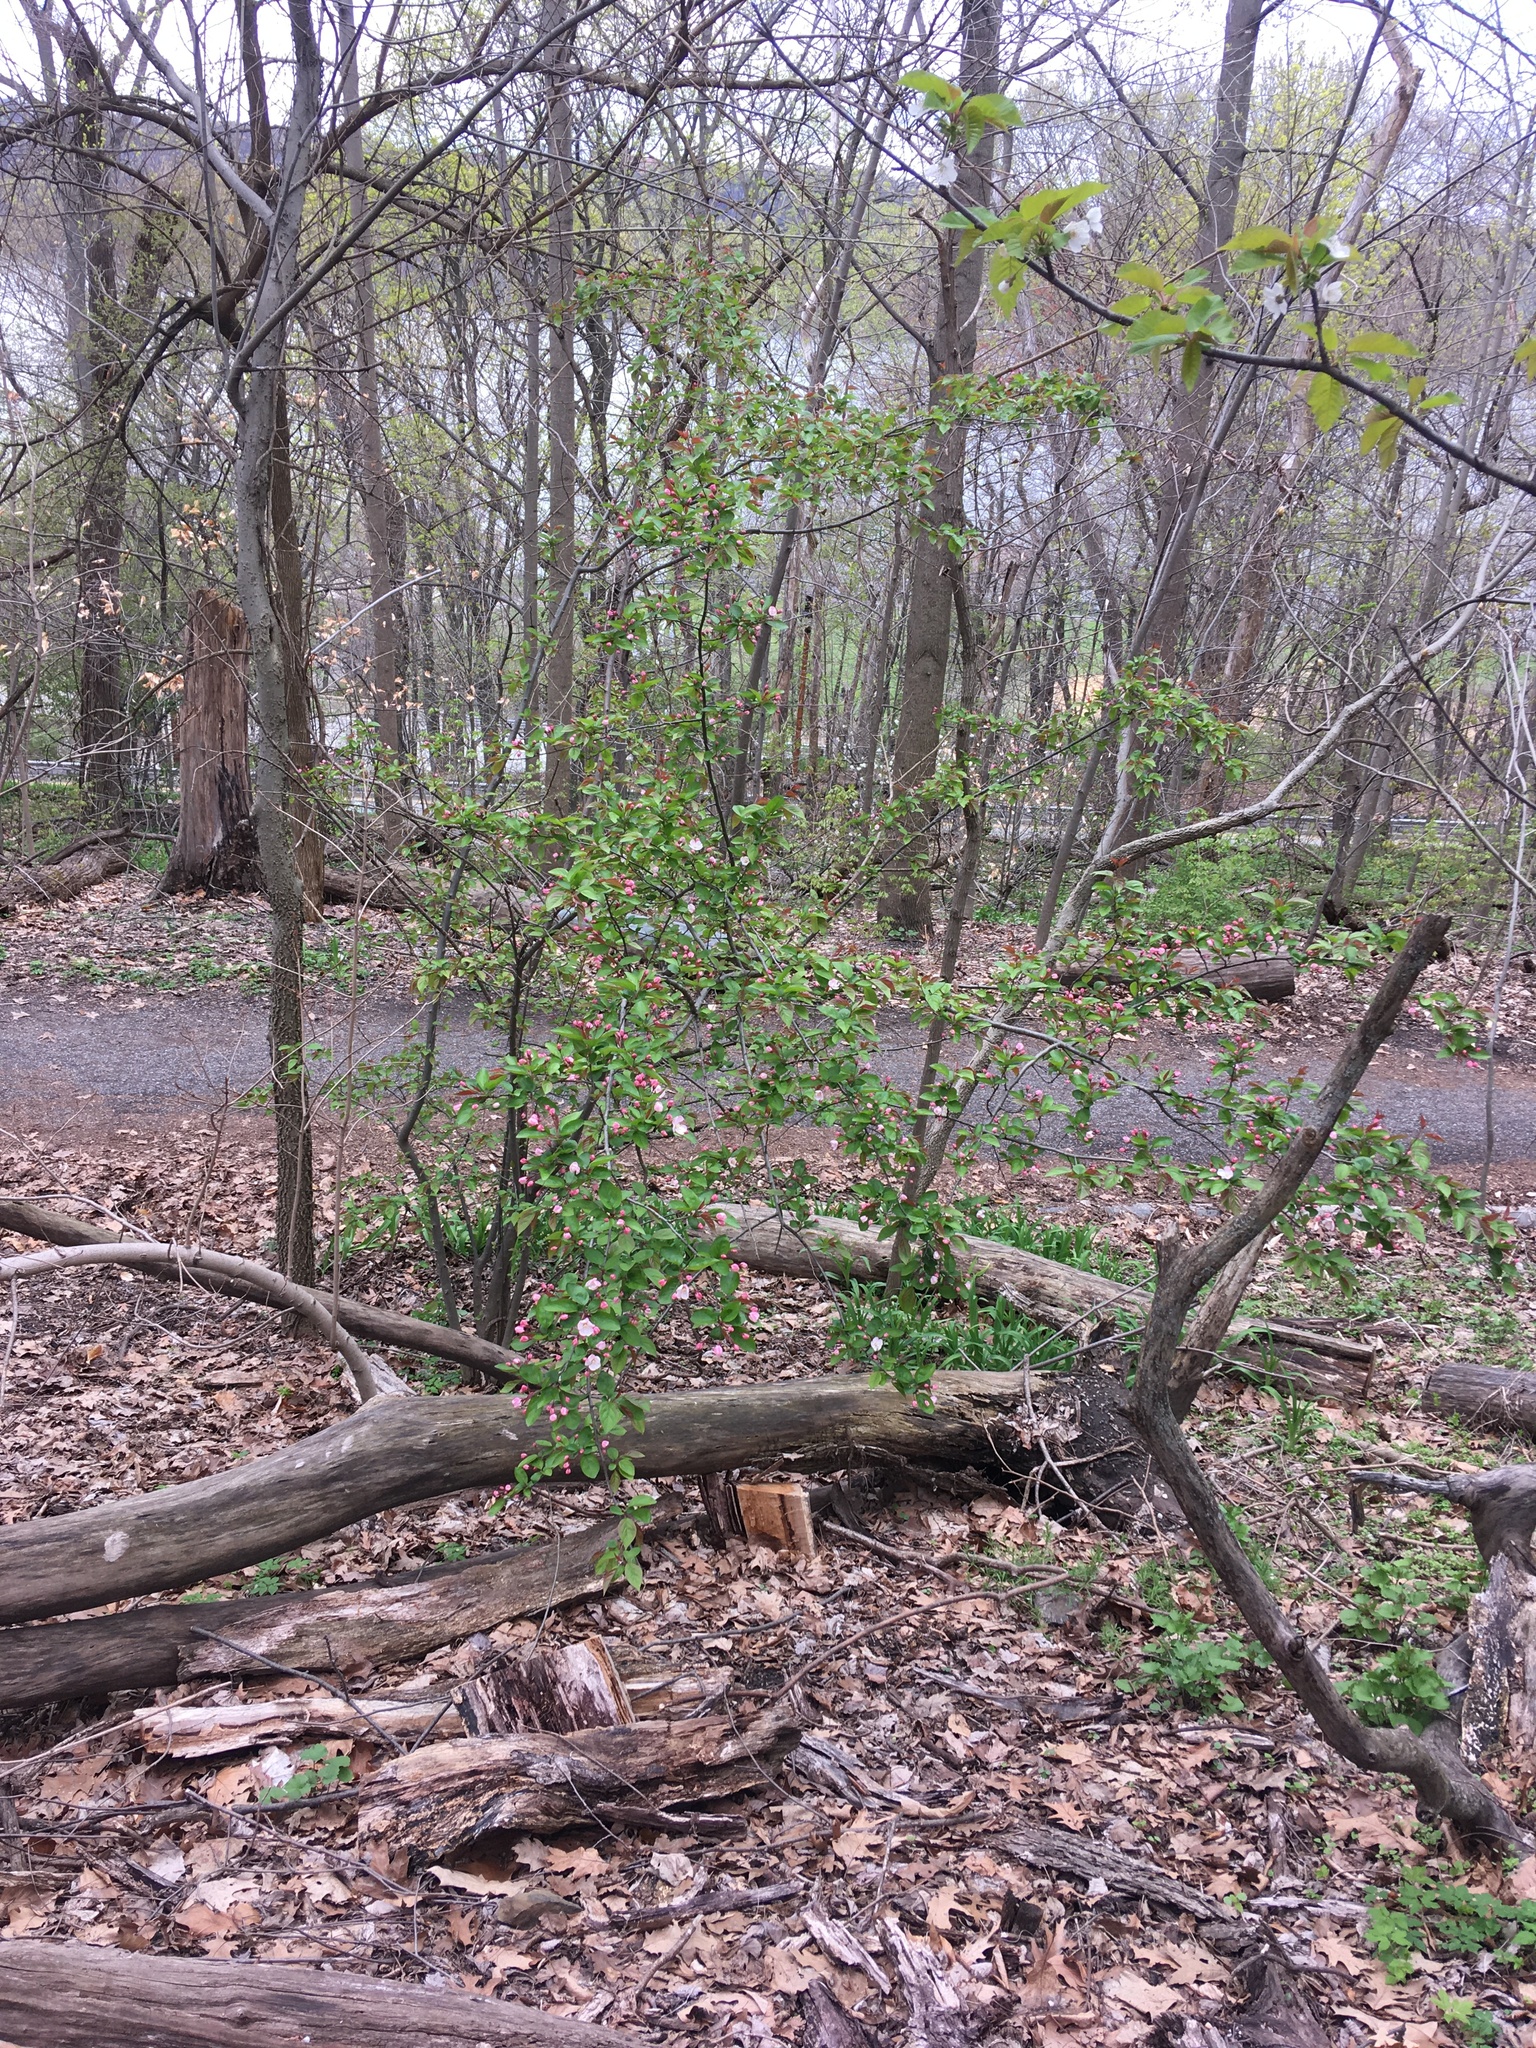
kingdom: Plantae
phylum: Tracheophyta
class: Magnoliopsida
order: Rosales
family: Rosaceae
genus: Malus
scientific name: Malus hupehensis
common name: Chinese crab apple
